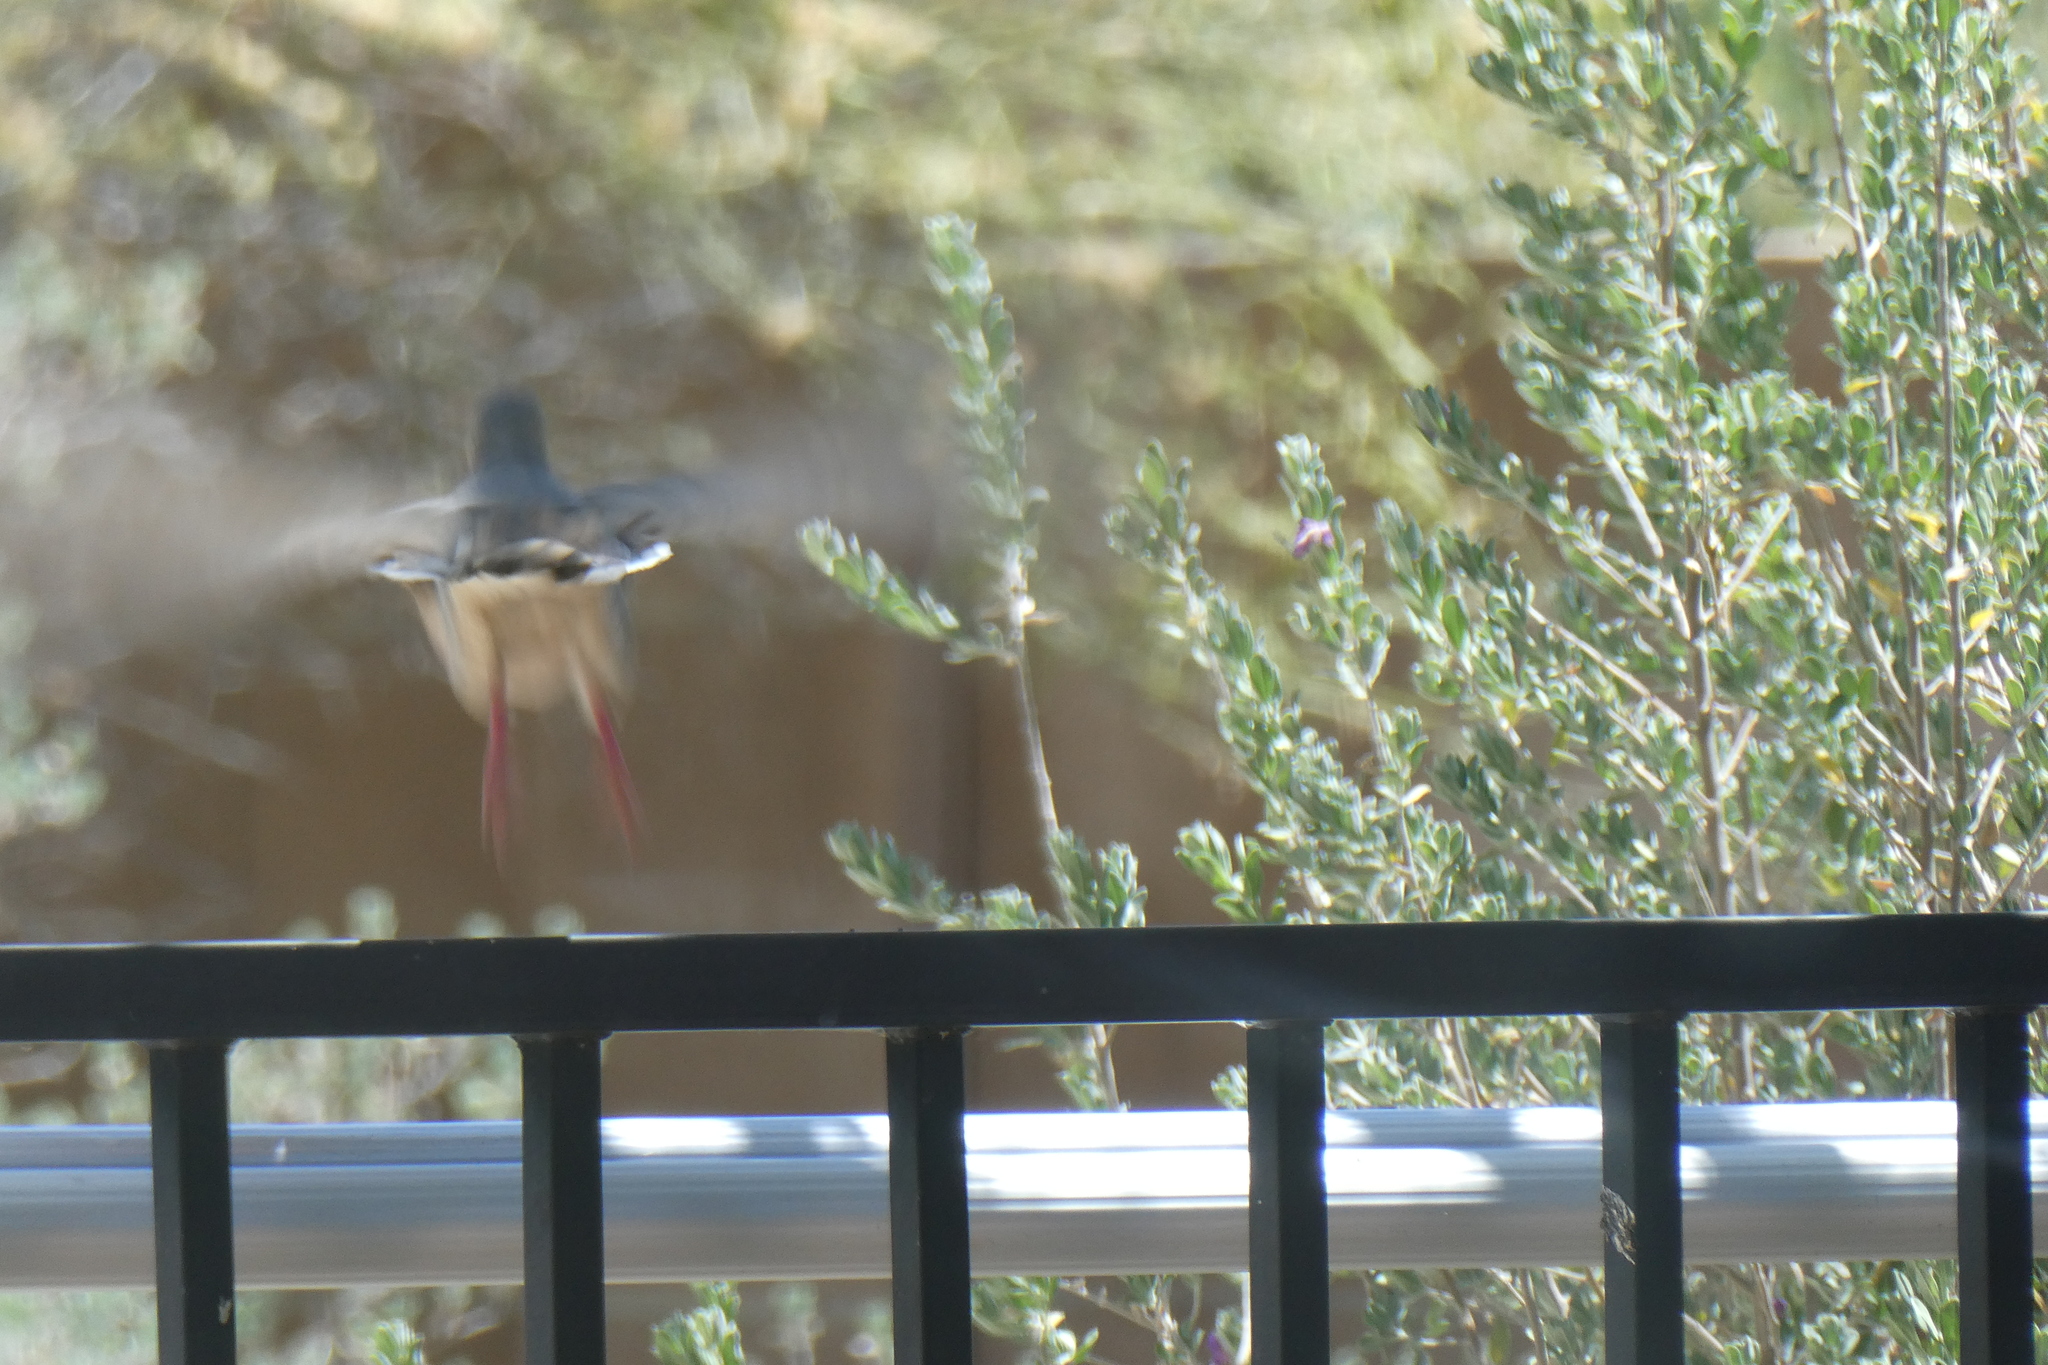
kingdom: Animalia
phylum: Chordata
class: Aves
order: Columbiformes
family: Columbidae
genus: Zenaida
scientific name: Zenaida macroura
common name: Mourning dove
